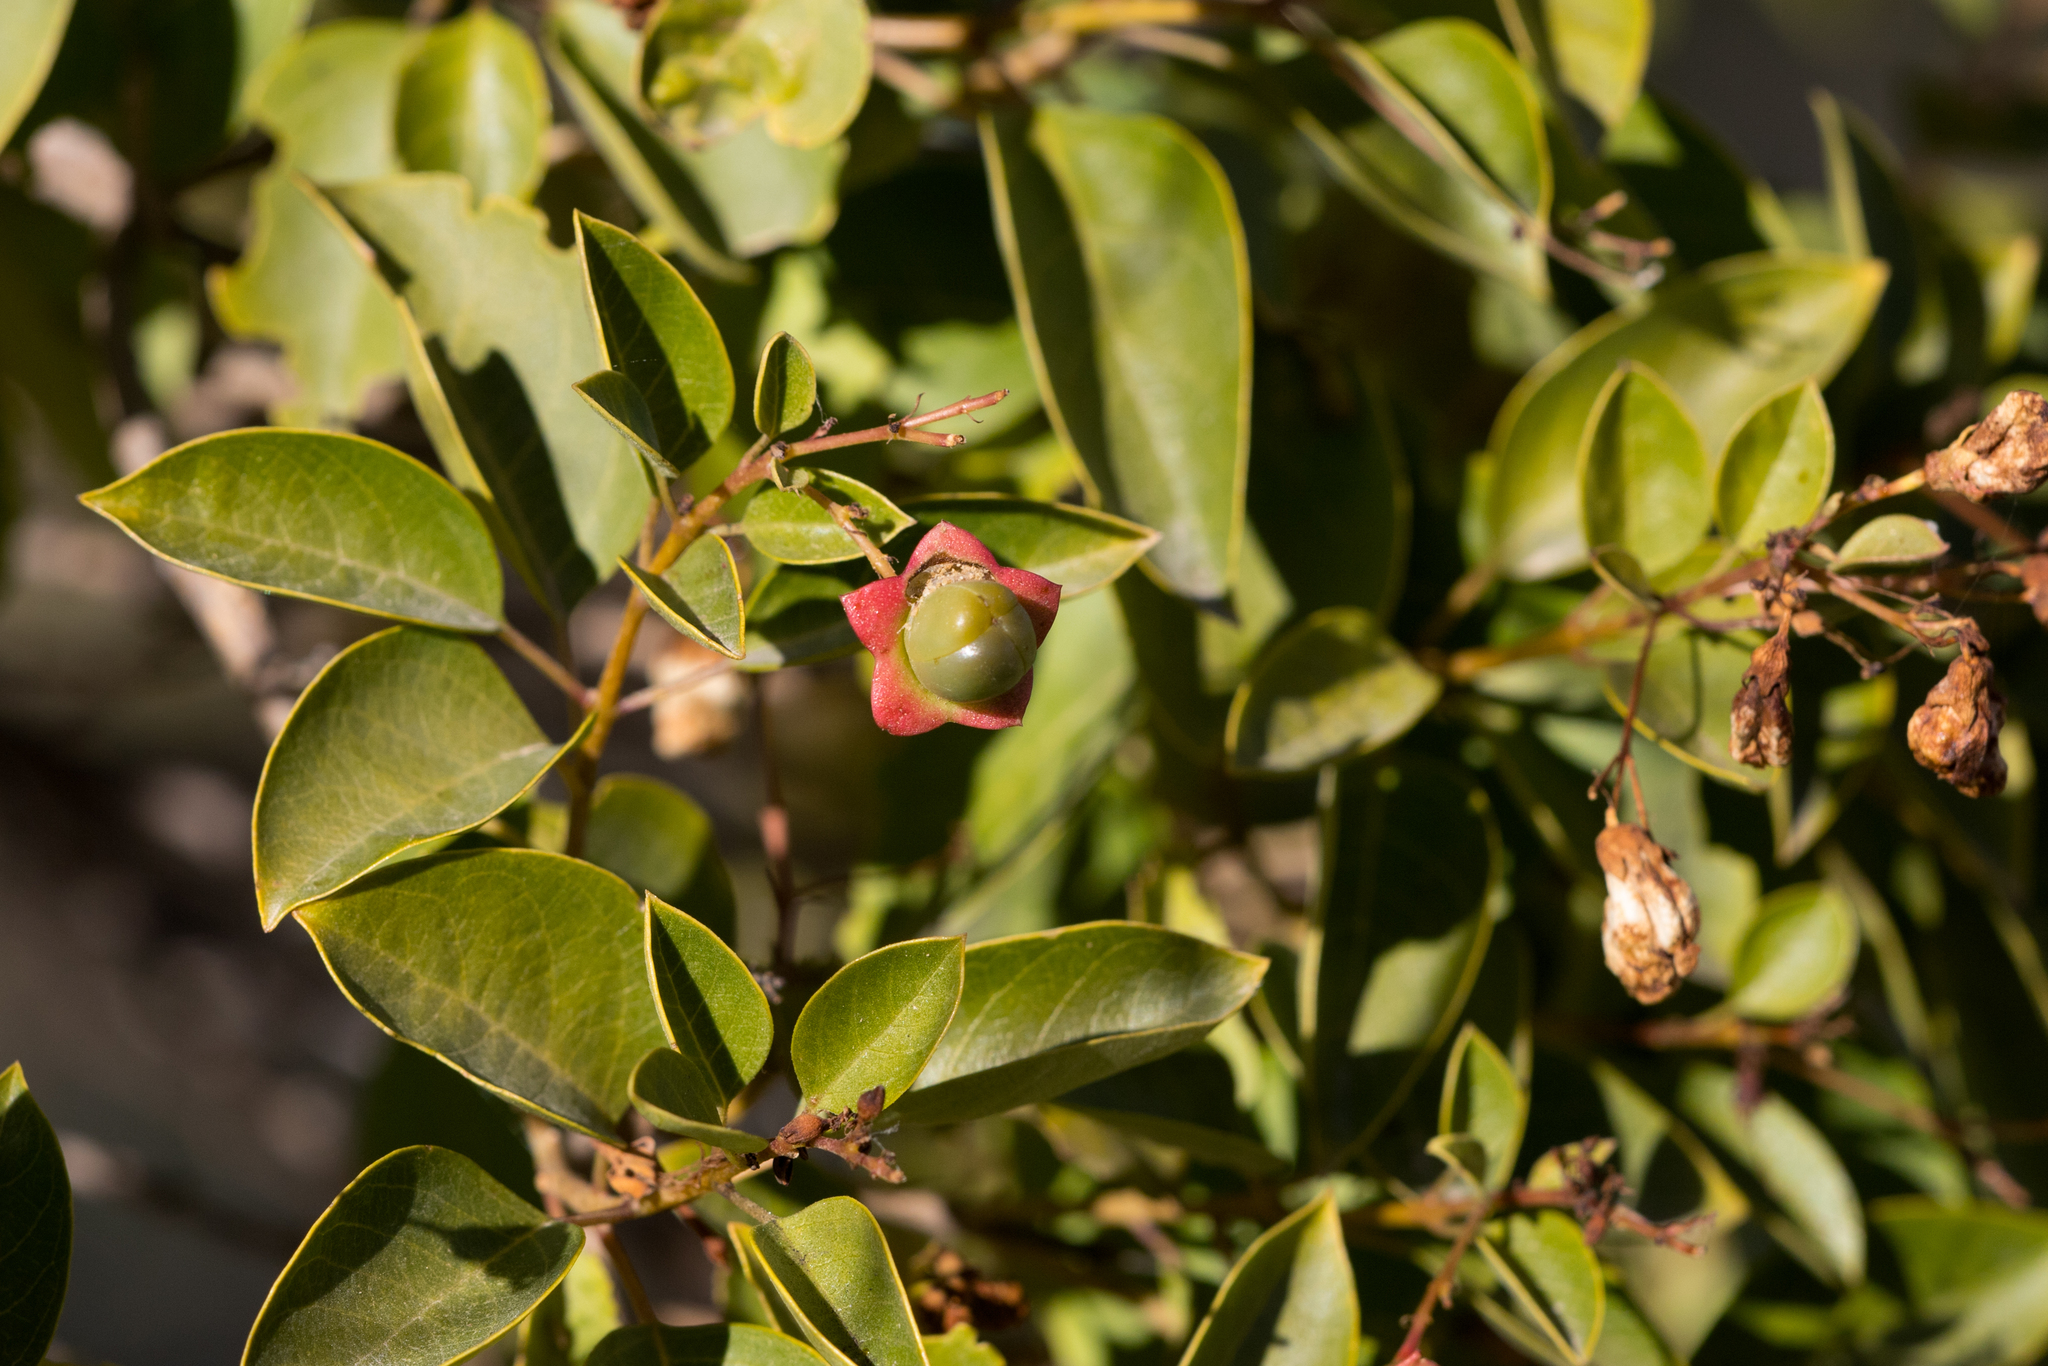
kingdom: Plantae
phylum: Tracheophyta
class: Magnoliopsida
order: Lamiales
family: Lamiaceae
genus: Clerodendrum
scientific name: Clerodendrum floribundum
